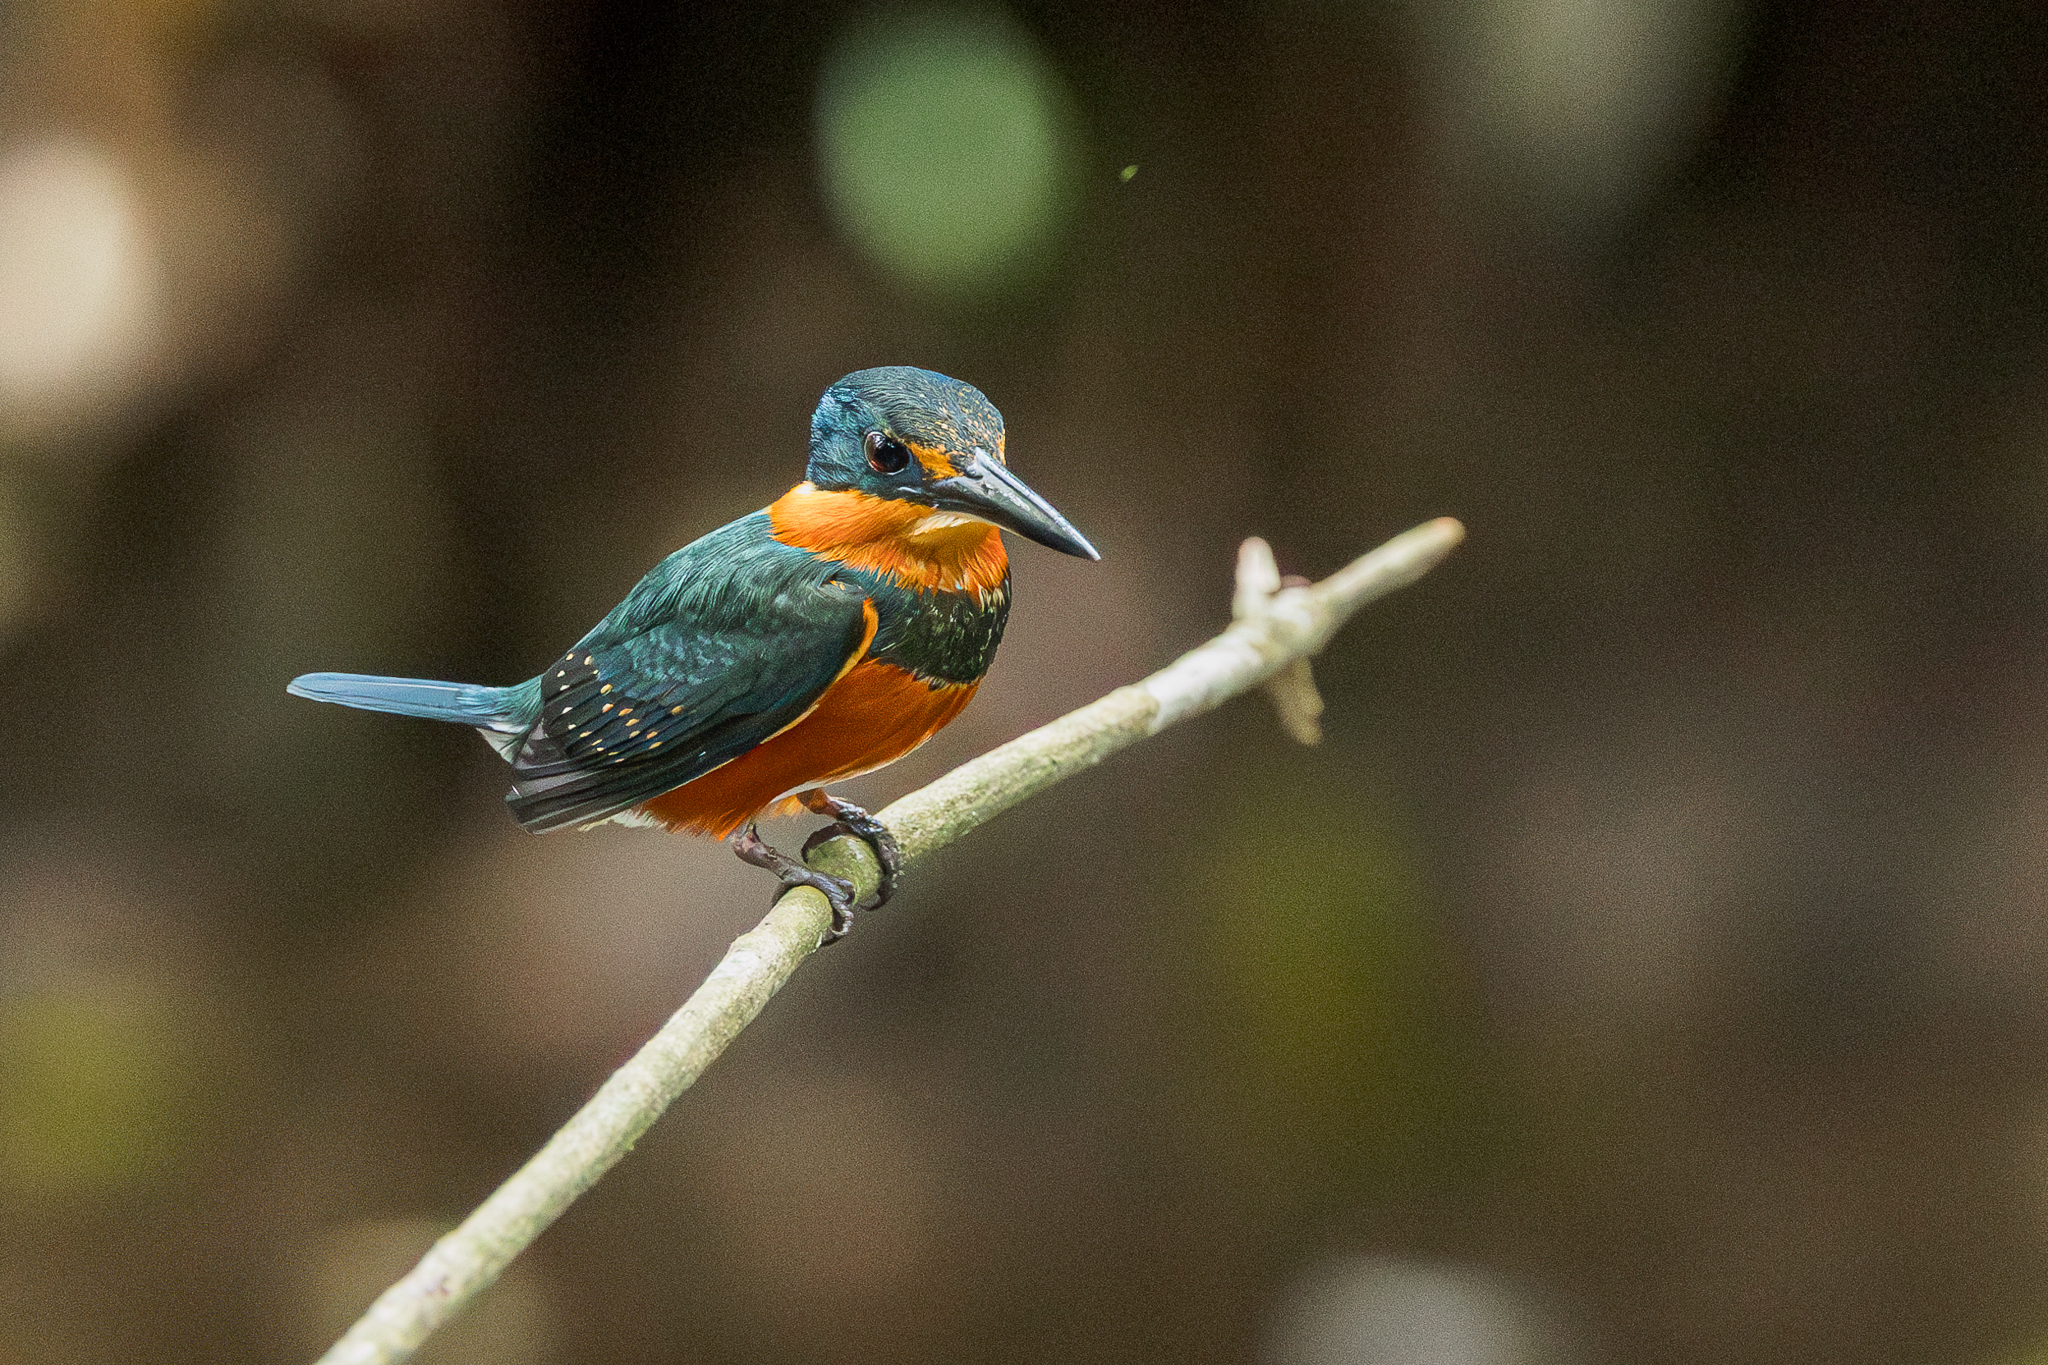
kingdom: Animalia
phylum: Chordata
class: Aves
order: Coraciiformes
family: Alcedinidae
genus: Chloroceryle
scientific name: Chloroceryle aenea
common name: American pygmy kingfisher
